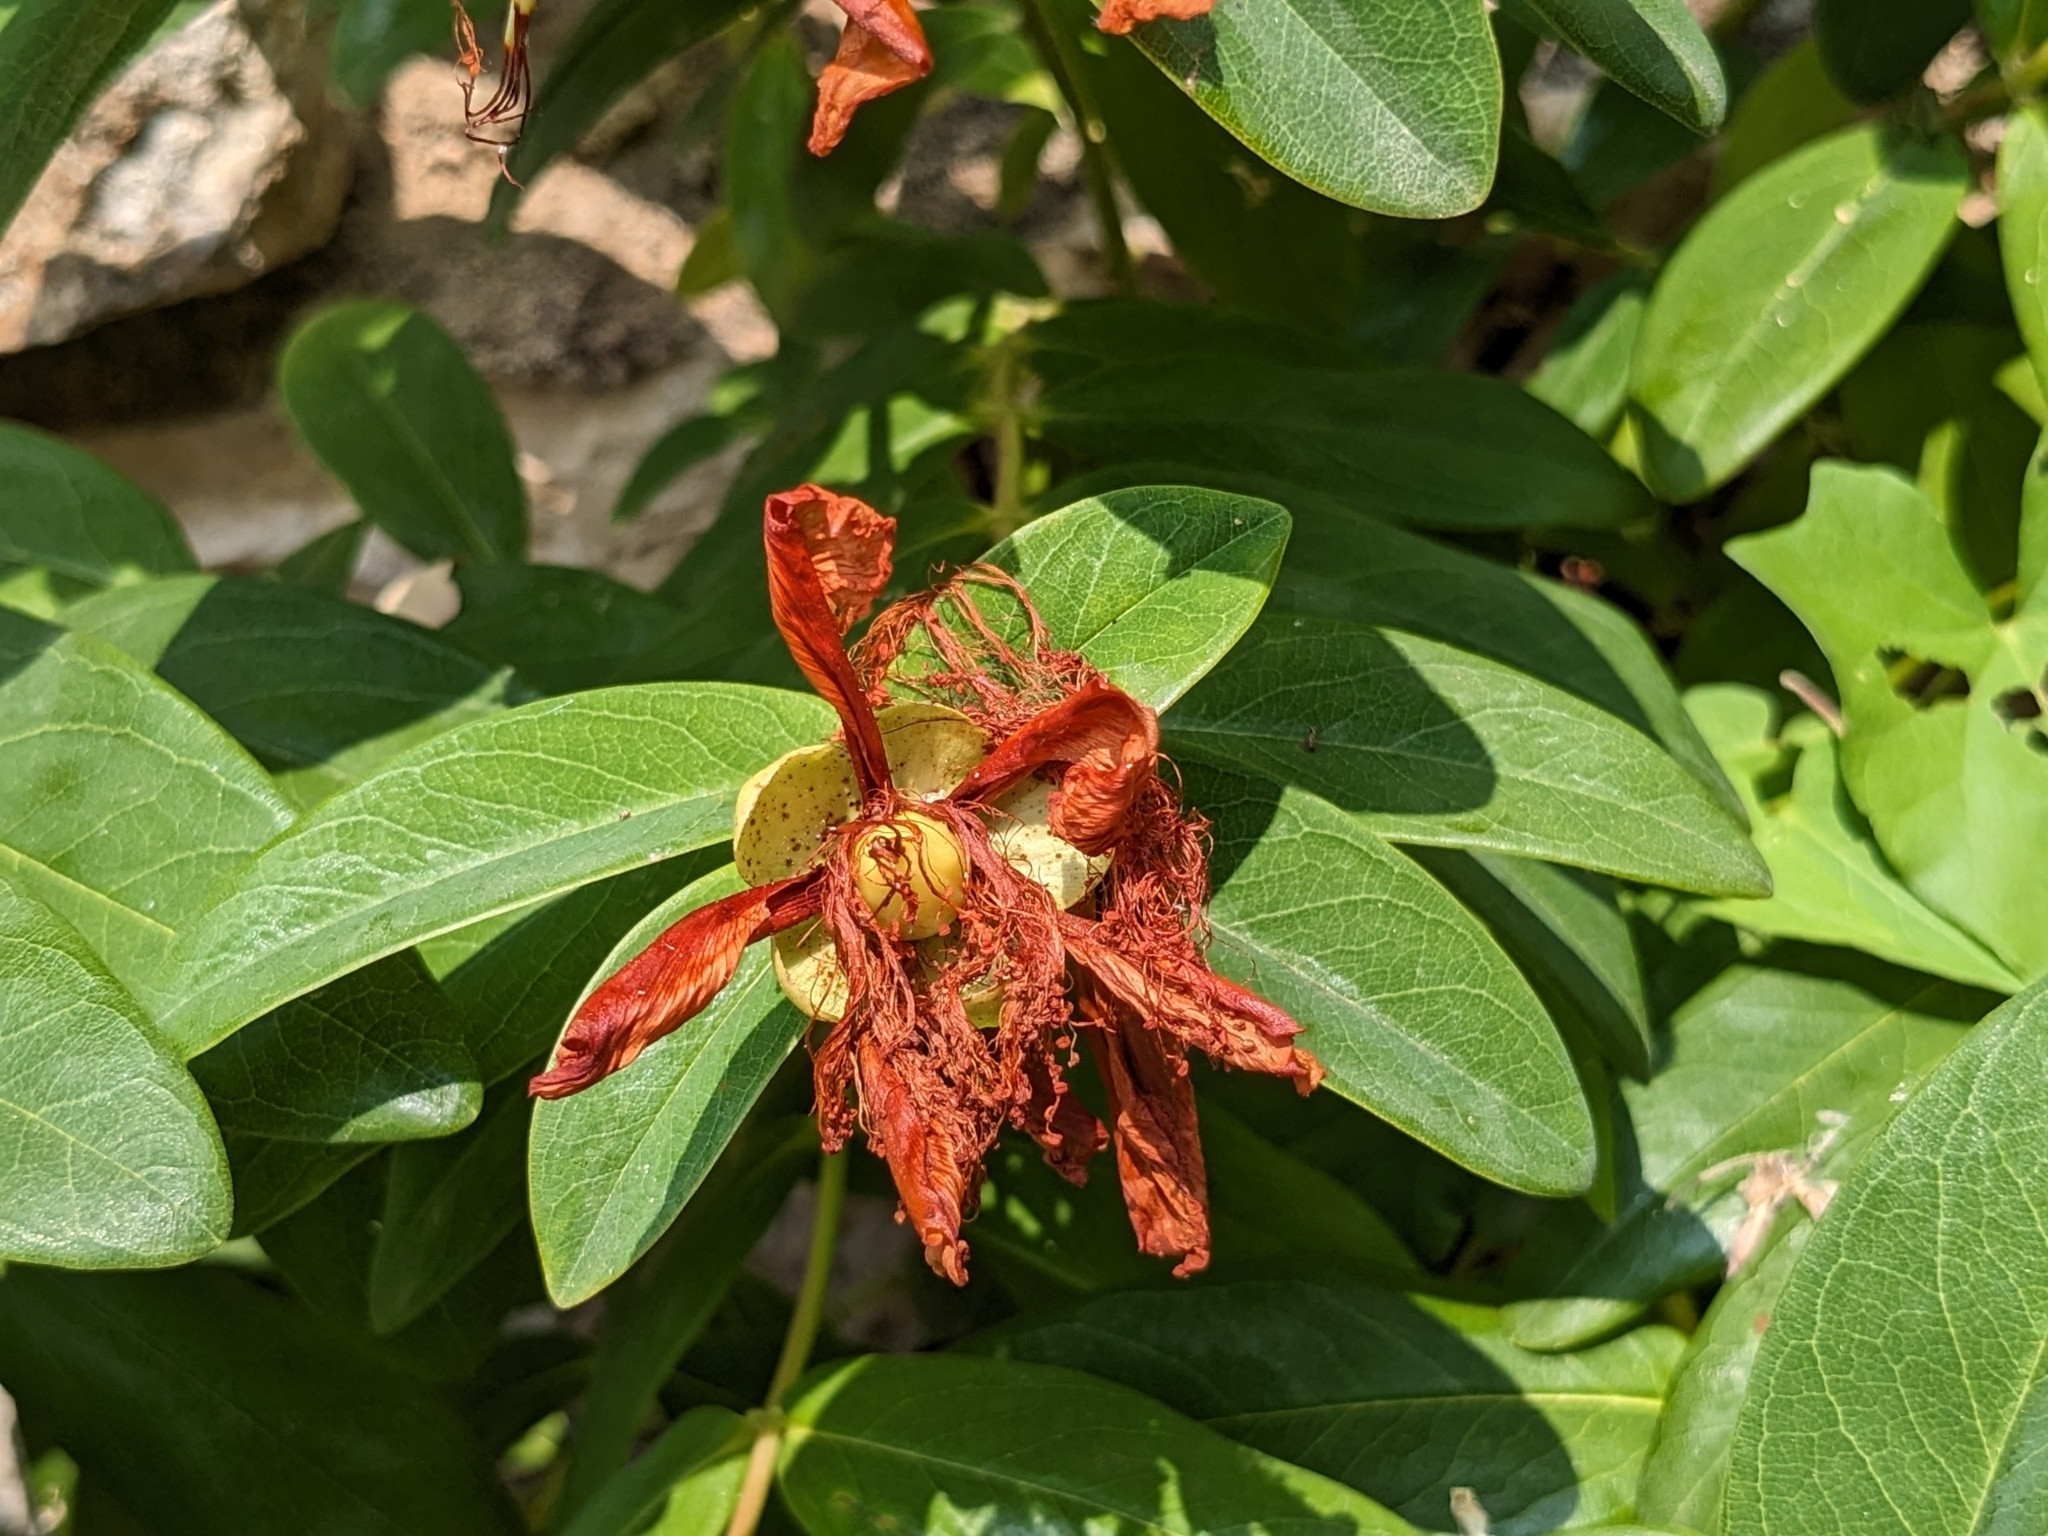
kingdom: Plantae
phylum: Tracheophyta
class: Magnoliopsida
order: Malpighiales
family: Hypericaceae
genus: Hypericum
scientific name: Hypericum calycinum
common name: Rose-of-sharon
